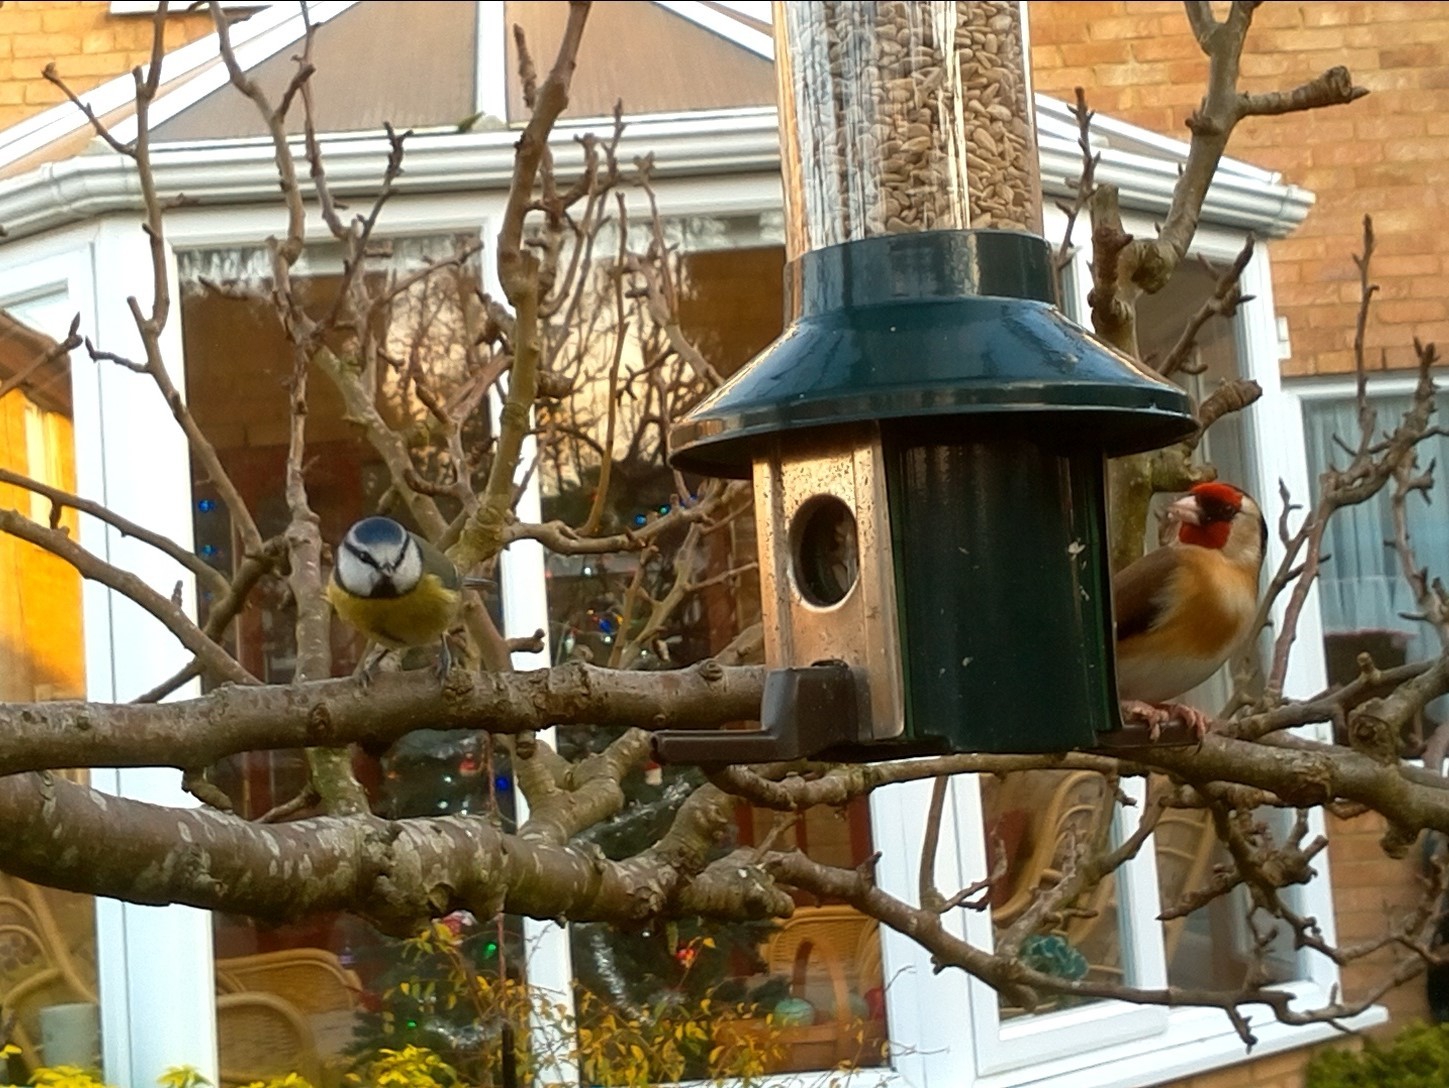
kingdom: Animalia
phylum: Chordata
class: Aves
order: Passeriformes
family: Fringillidae
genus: Carduelis
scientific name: Carduelis carduelis
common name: European goldfinch
